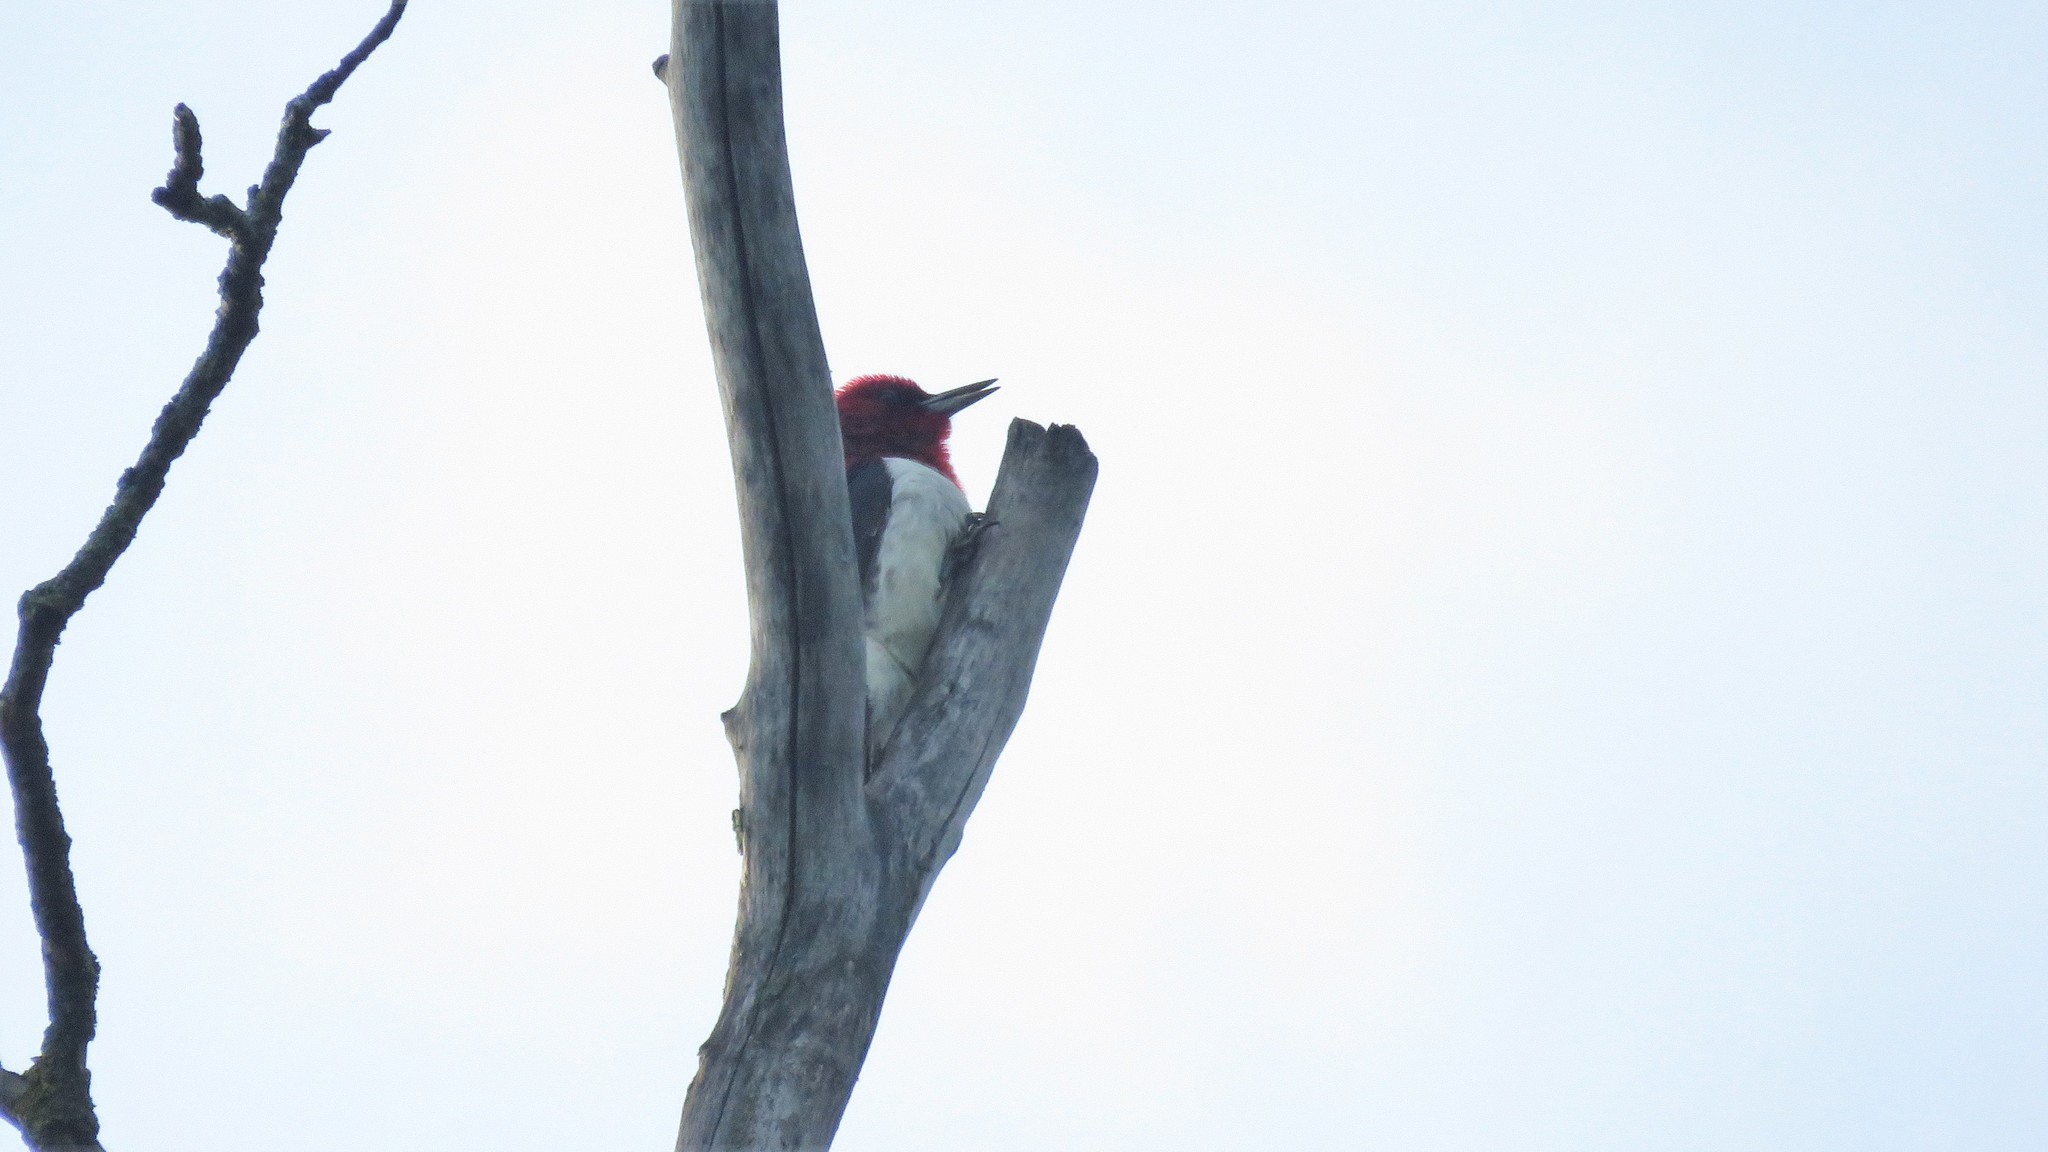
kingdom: Animalia
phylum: Chordata
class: Aves
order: Piciformes
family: Picidae
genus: Melanerpes
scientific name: Melanerpes erythrocephalus
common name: Red-headed woodpecker
